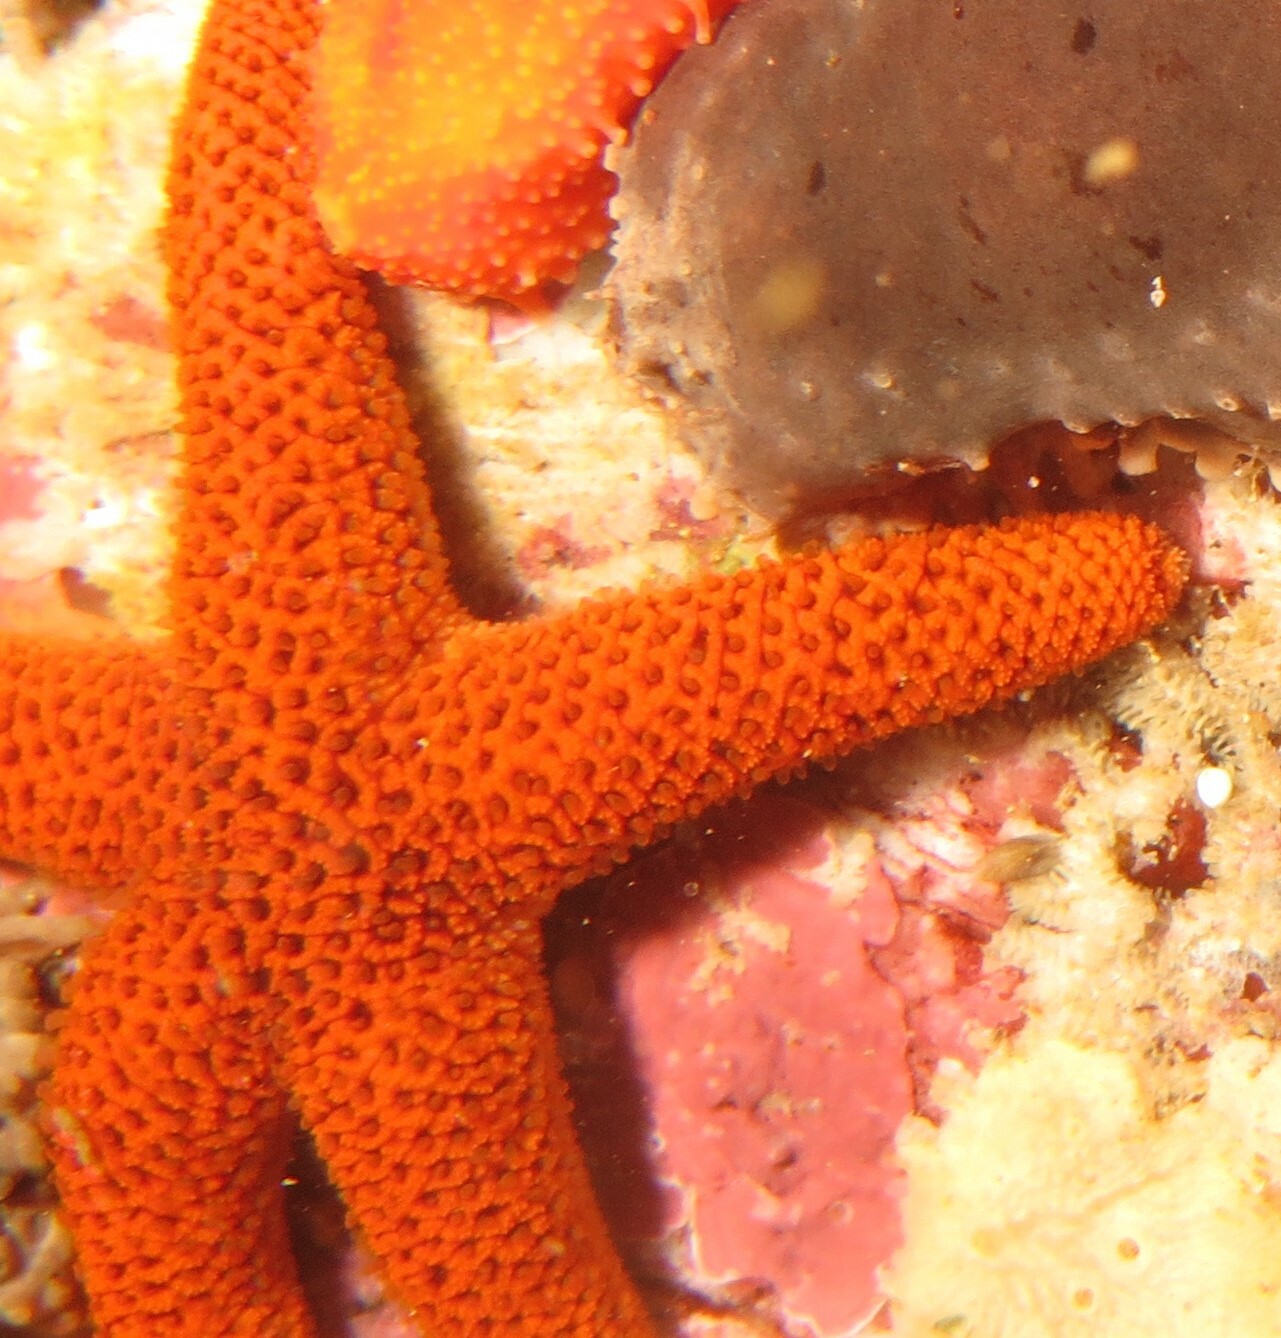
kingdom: Animalia
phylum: Echinodermata
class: Asteroidea
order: Spinulosida
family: Echinasteridae
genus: Henricia
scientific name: Henricia ornata
